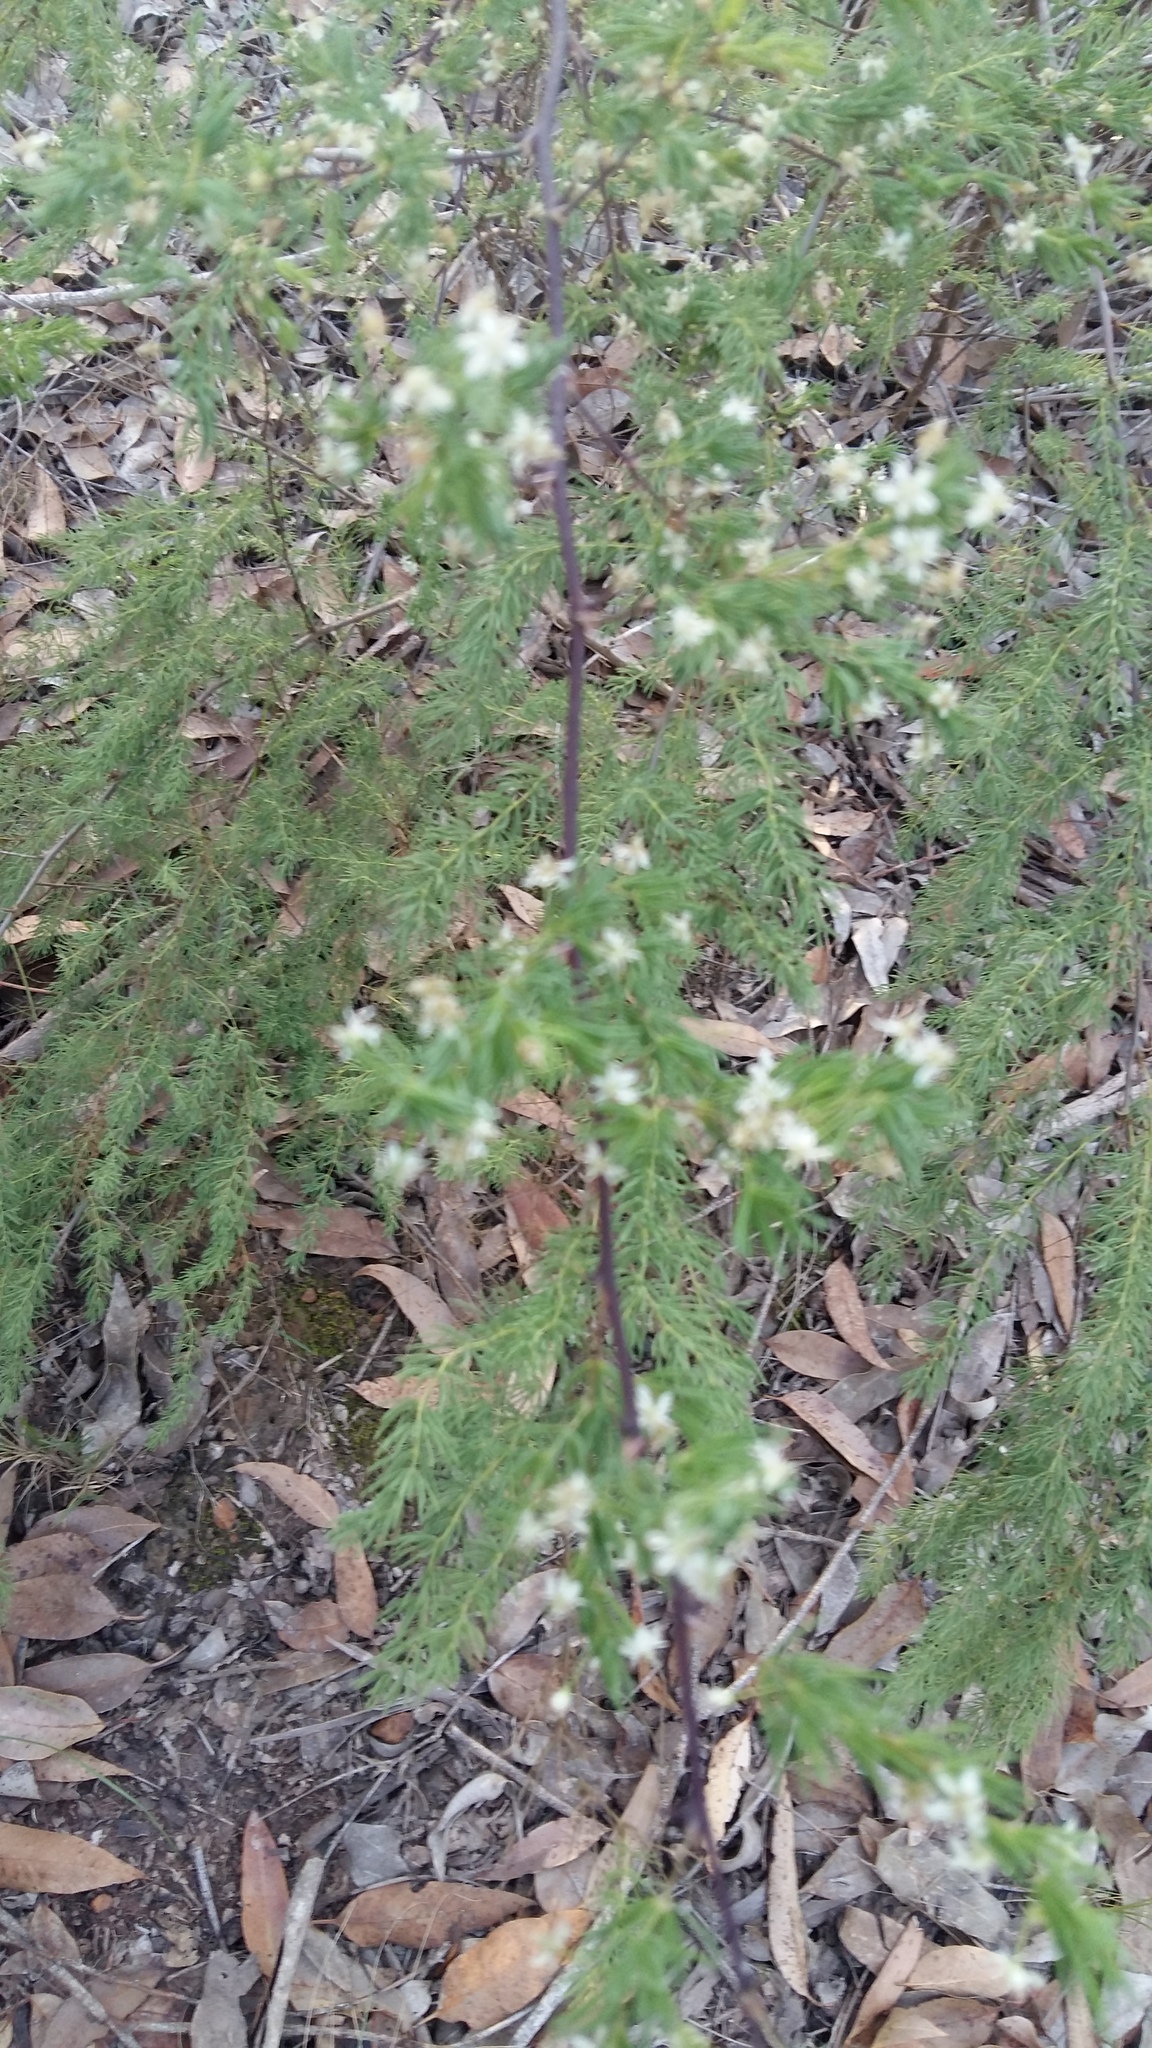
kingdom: Plantae
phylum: Tracheophyta
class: Liliopsida
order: Asparagales
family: Asparagaceae
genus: Asparagus
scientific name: Asparagus rubicundus
